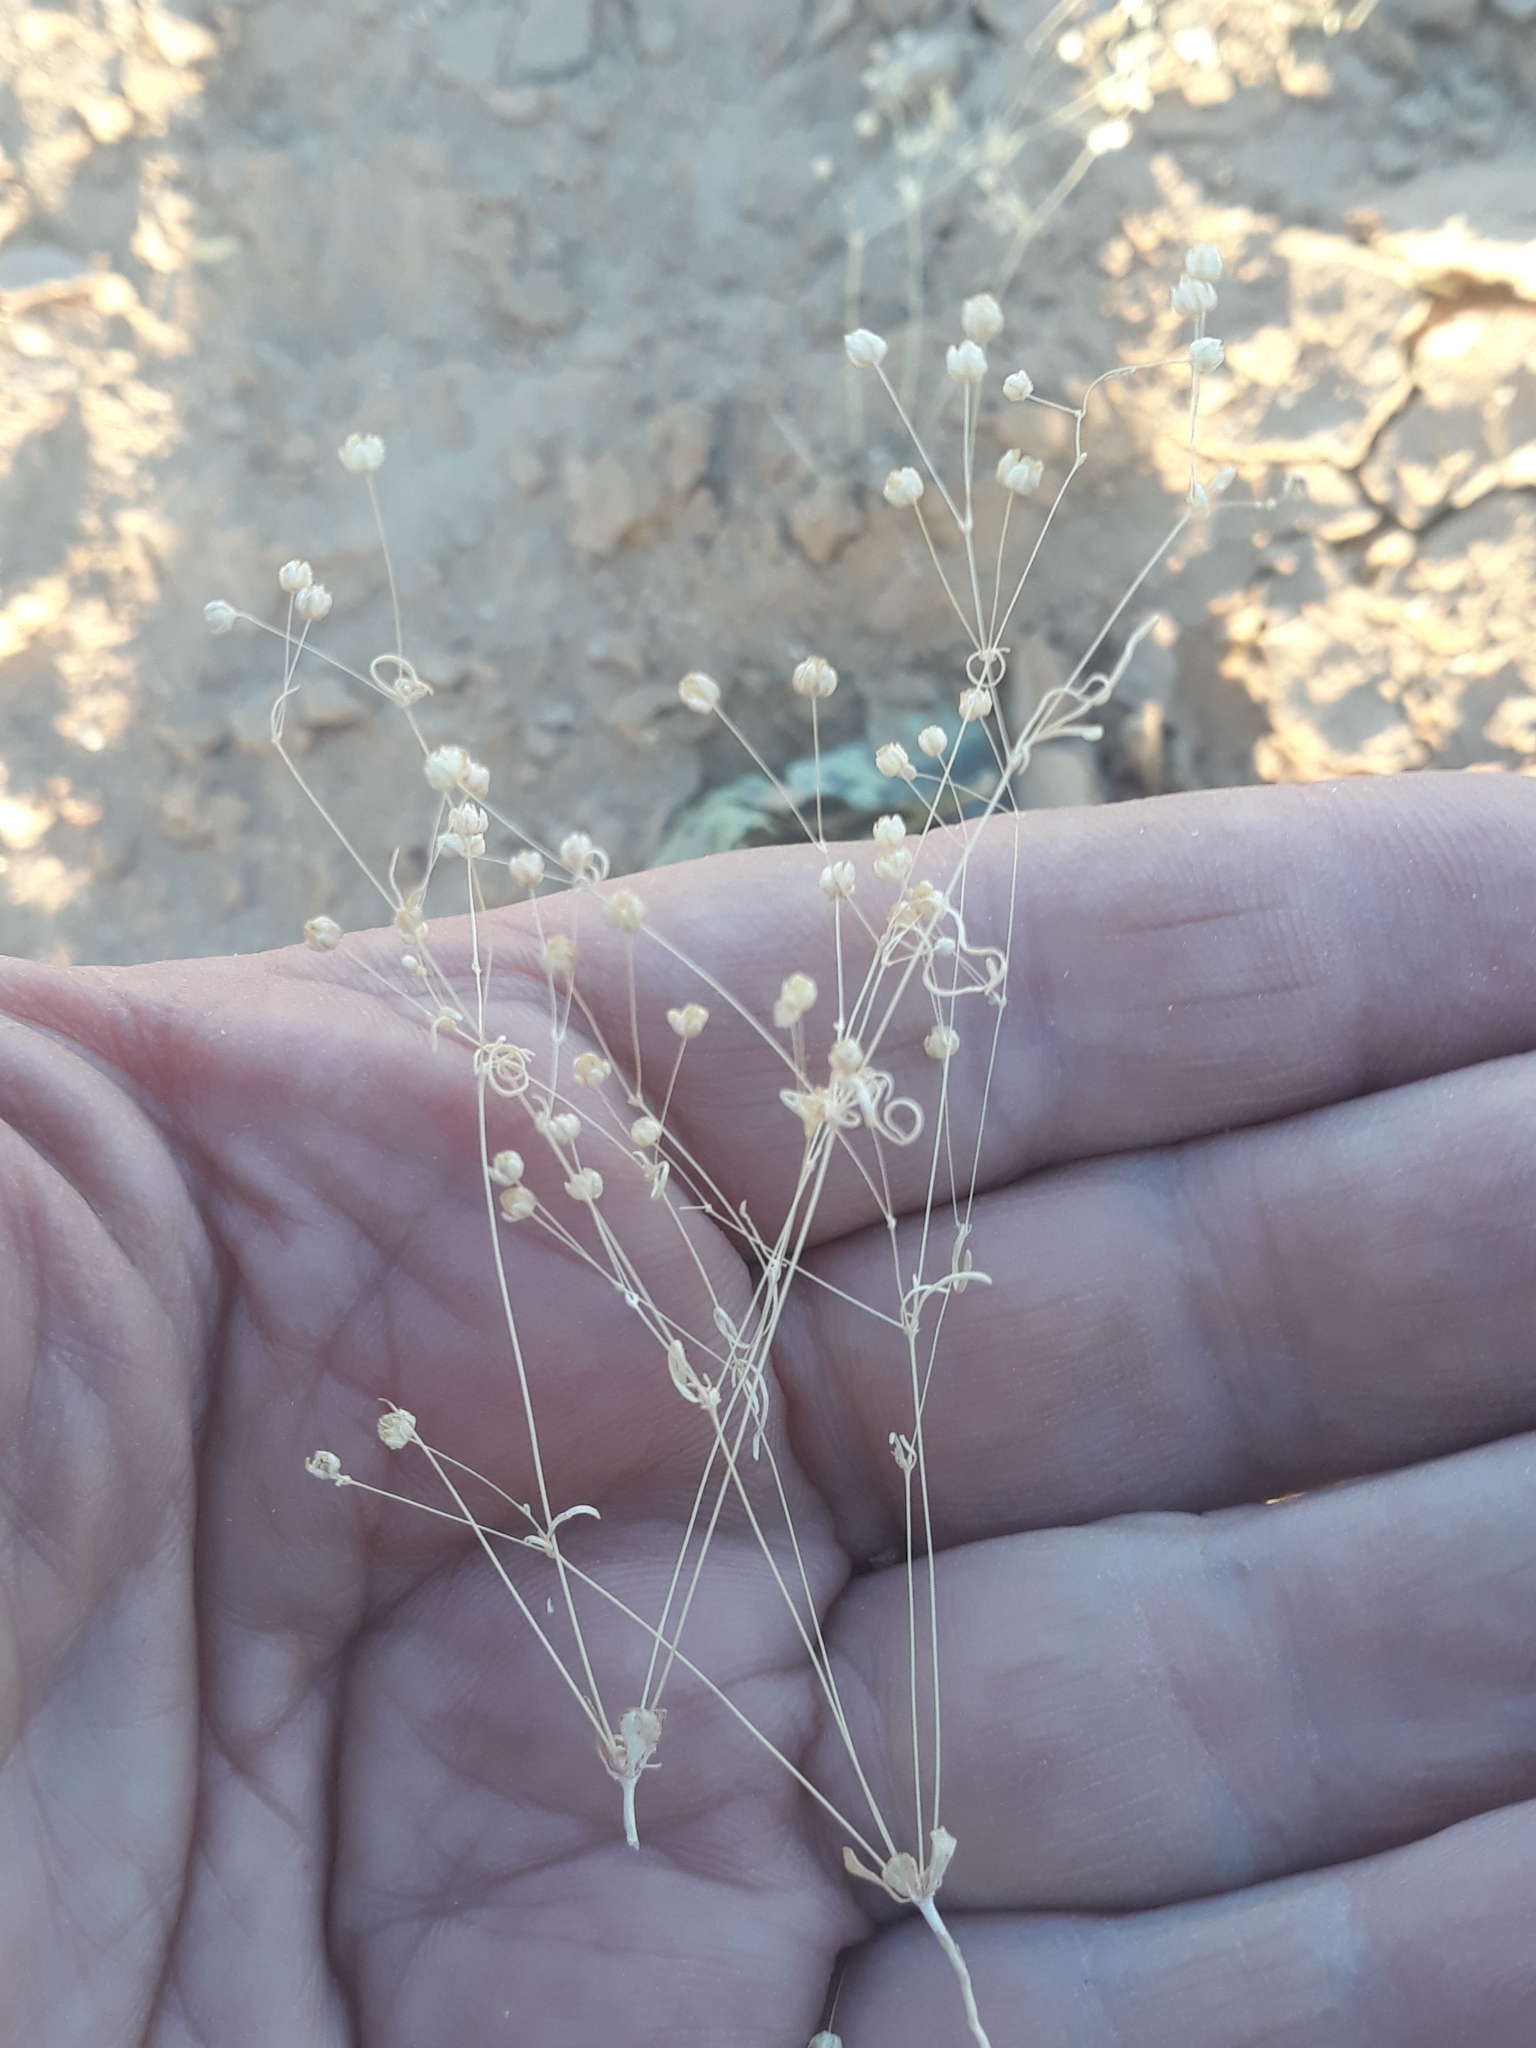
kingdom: Plantae
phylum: Tracheophyta
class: Magnoliopsida
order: Caryophyllales
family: Molluginaceae
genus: Hypertelis
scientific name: Hypertelis cerviana
